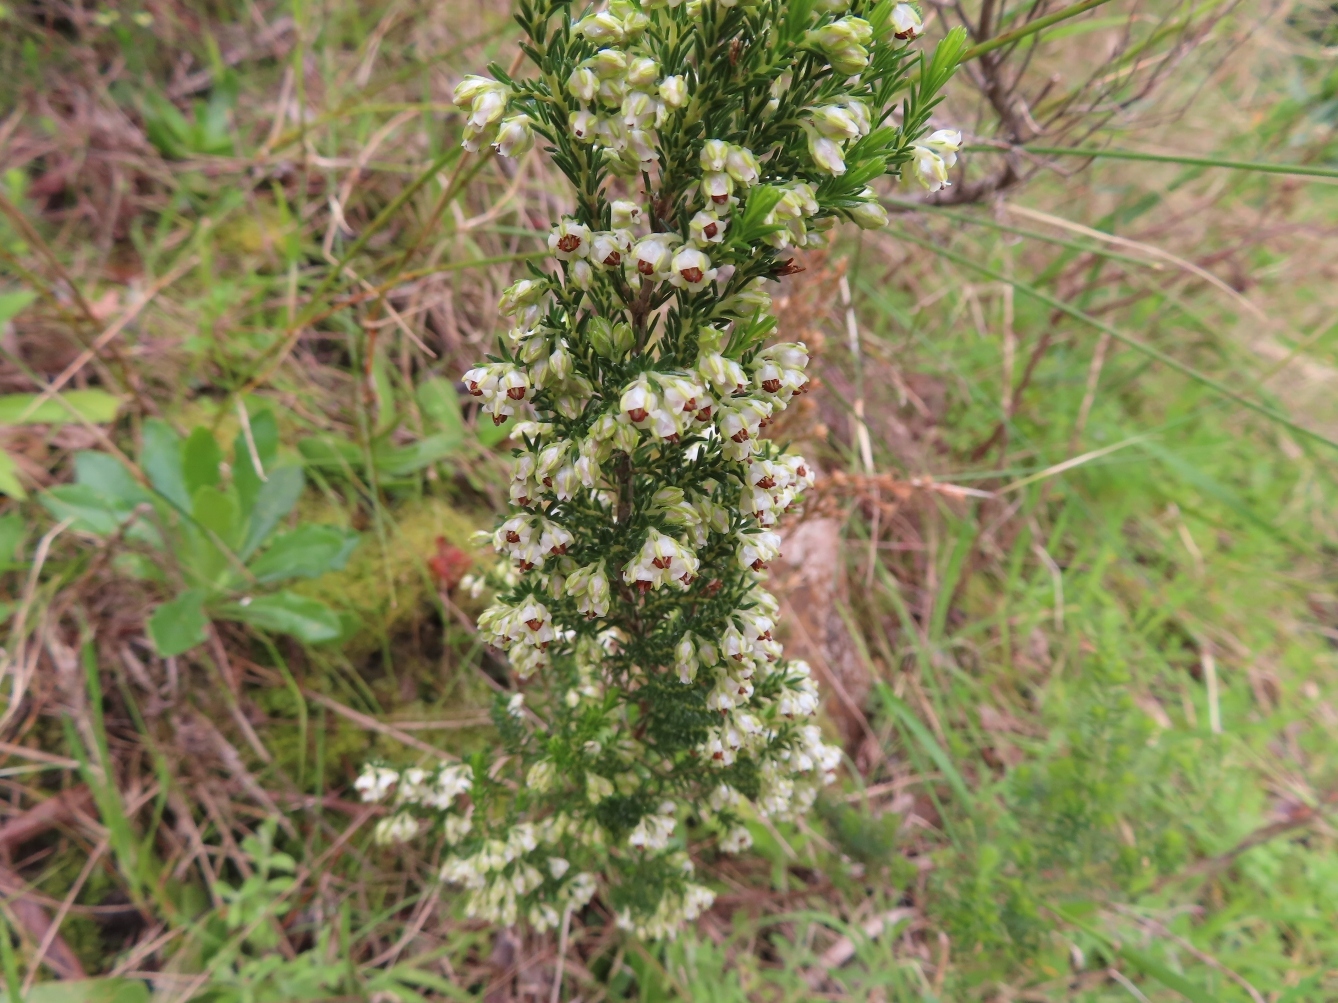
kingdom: Plantae
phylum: Tracheophyta
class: Magnoliopsida
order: Ericales
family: Ericaceae
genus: Erica
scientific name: Erica calycina
